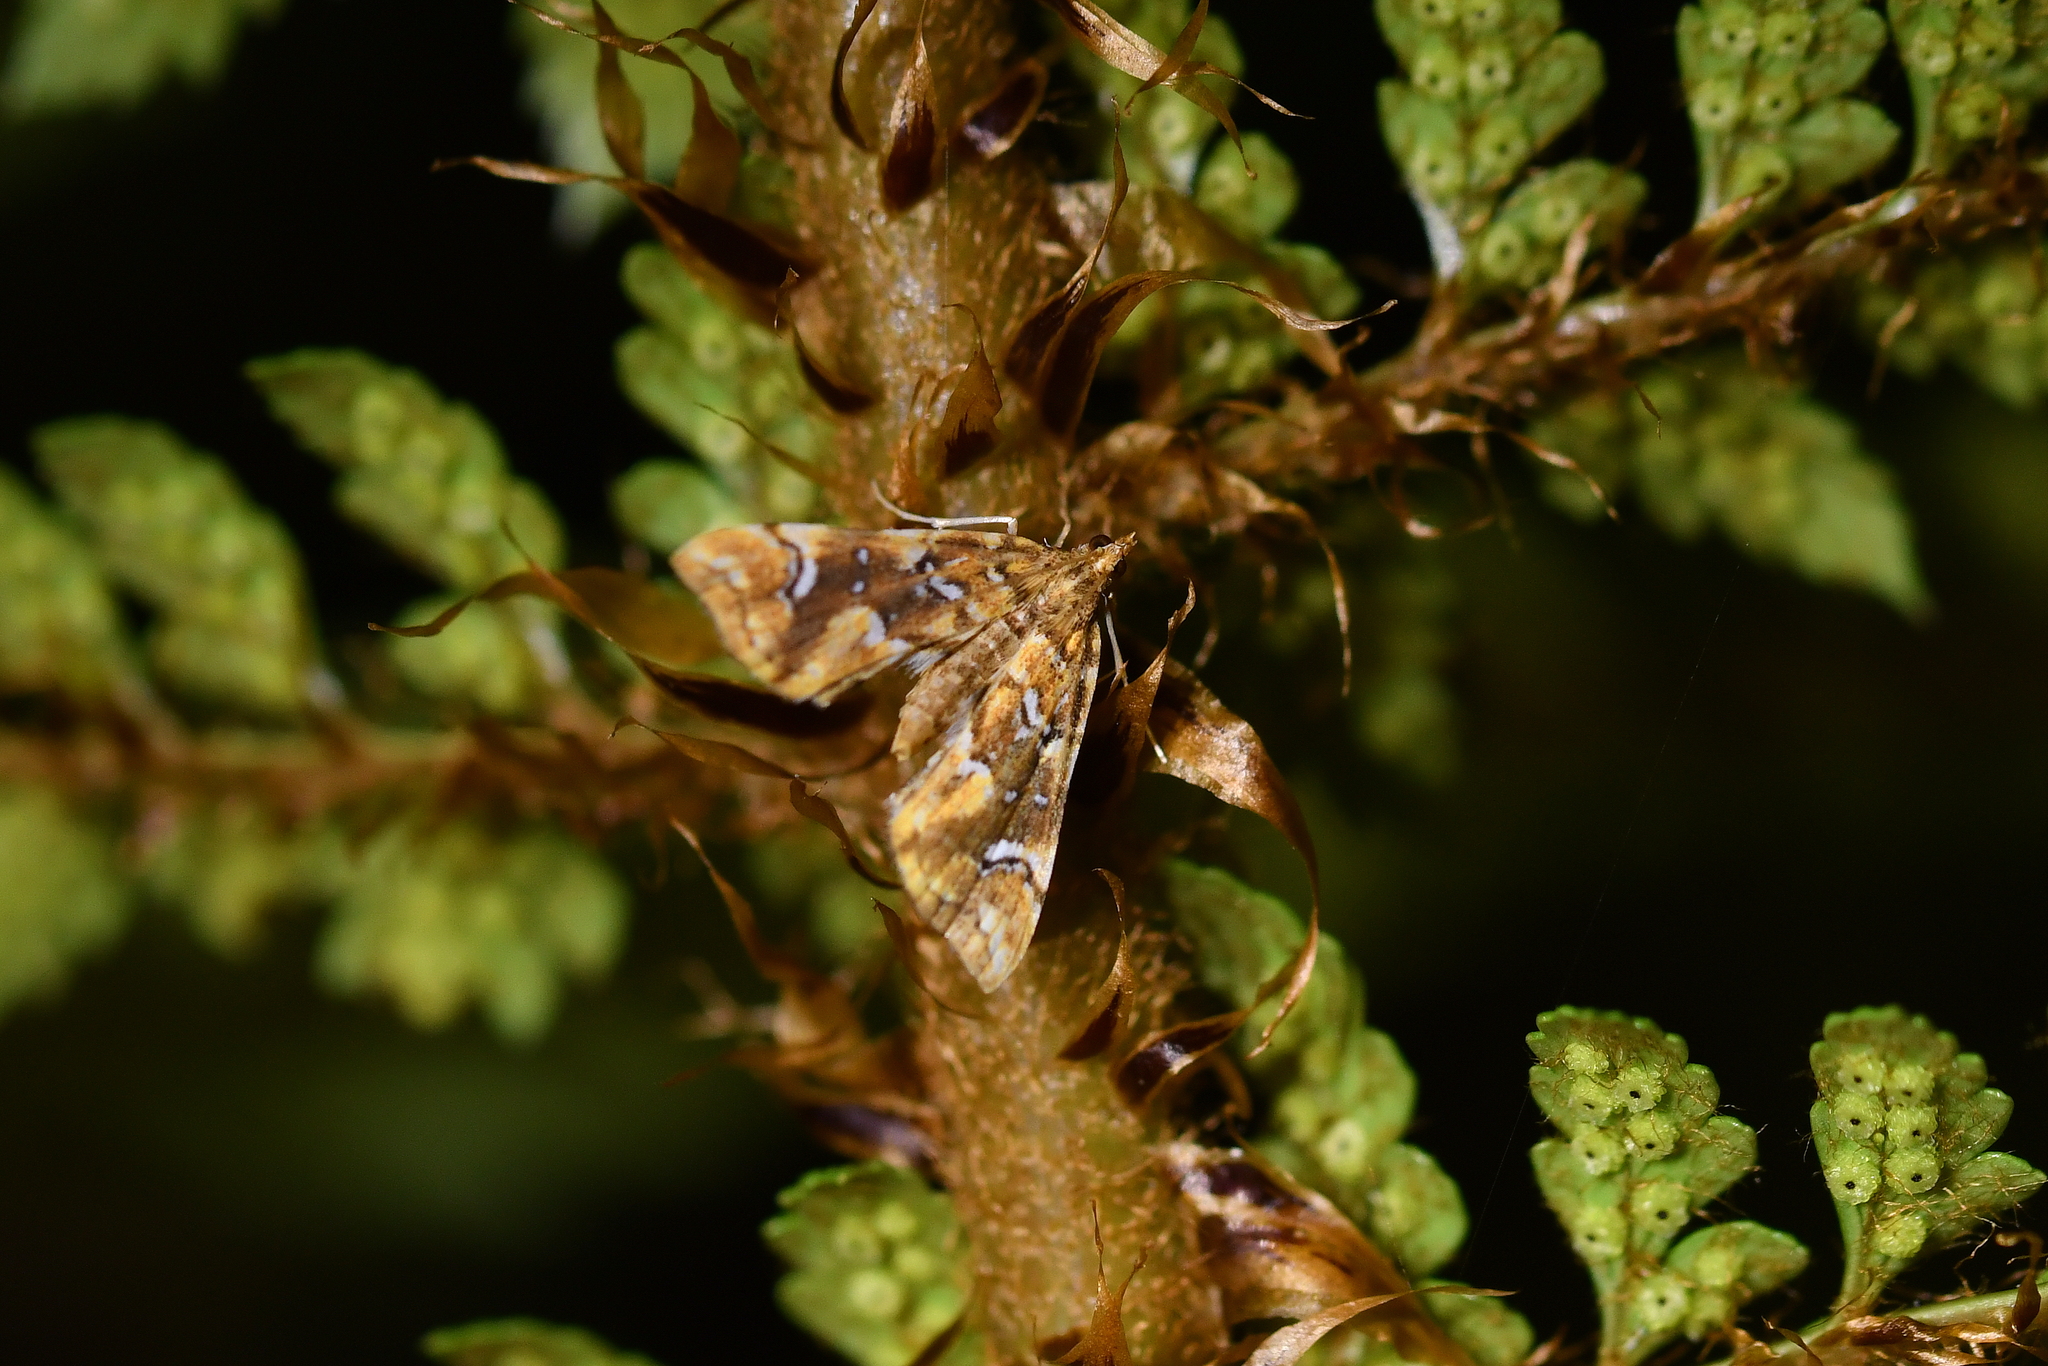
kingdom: Animalia
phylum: Arthropoda
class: Insecta
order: Lepidoptera
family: Pyralidae
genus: Musotima
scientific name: Musotima nitidalis
